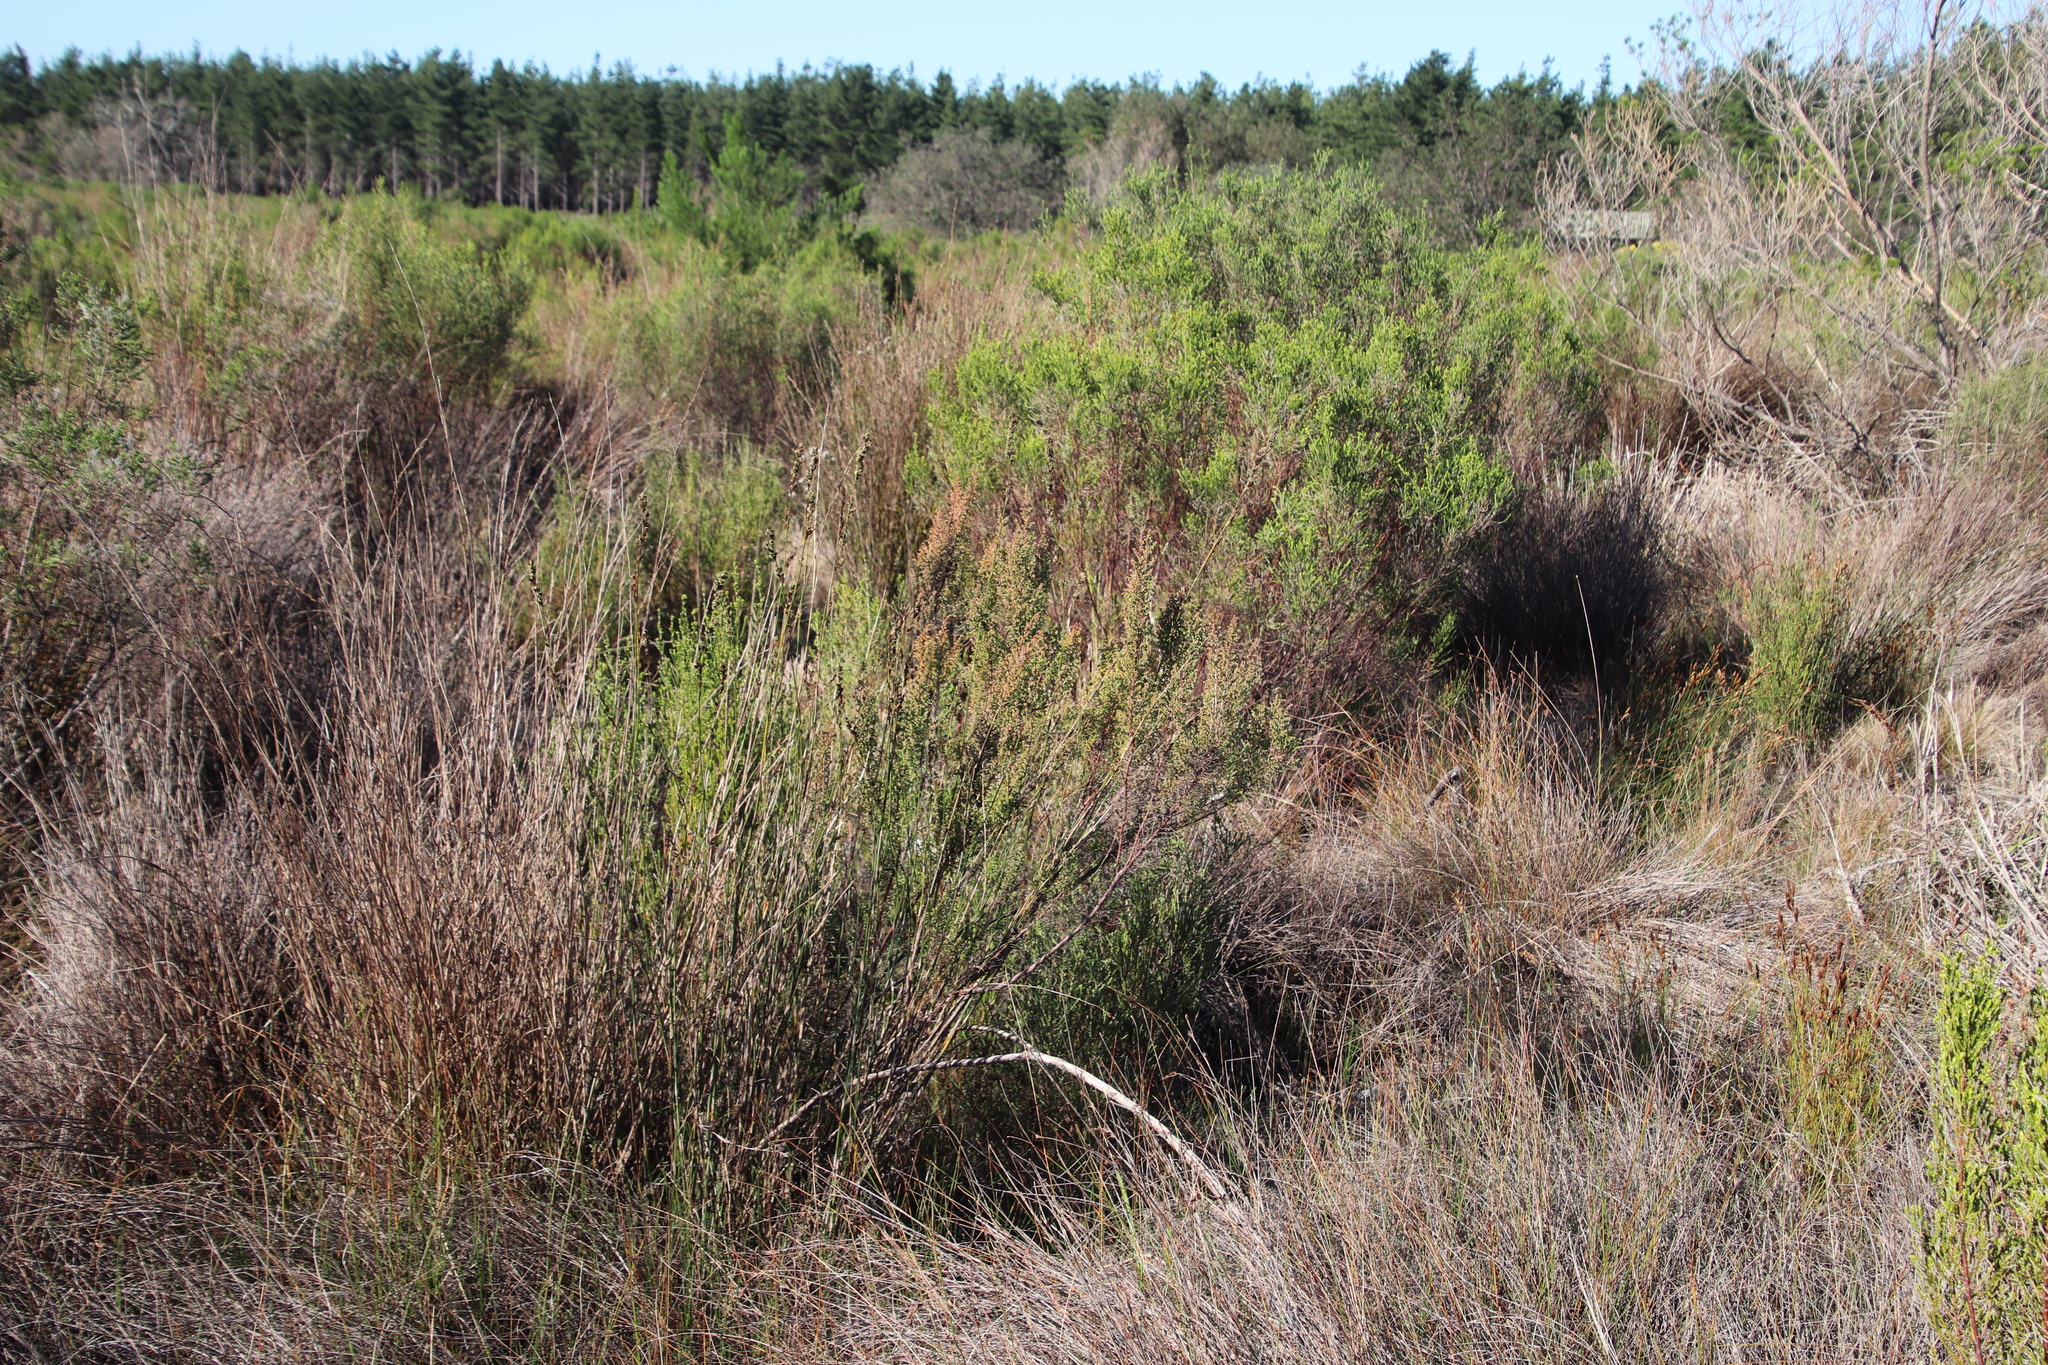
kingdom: Plantae
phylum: Tracheophyta
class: Magnoliopsida
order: Ericales
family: Ericaceae
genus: Erica
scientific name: Erica mauritanica
